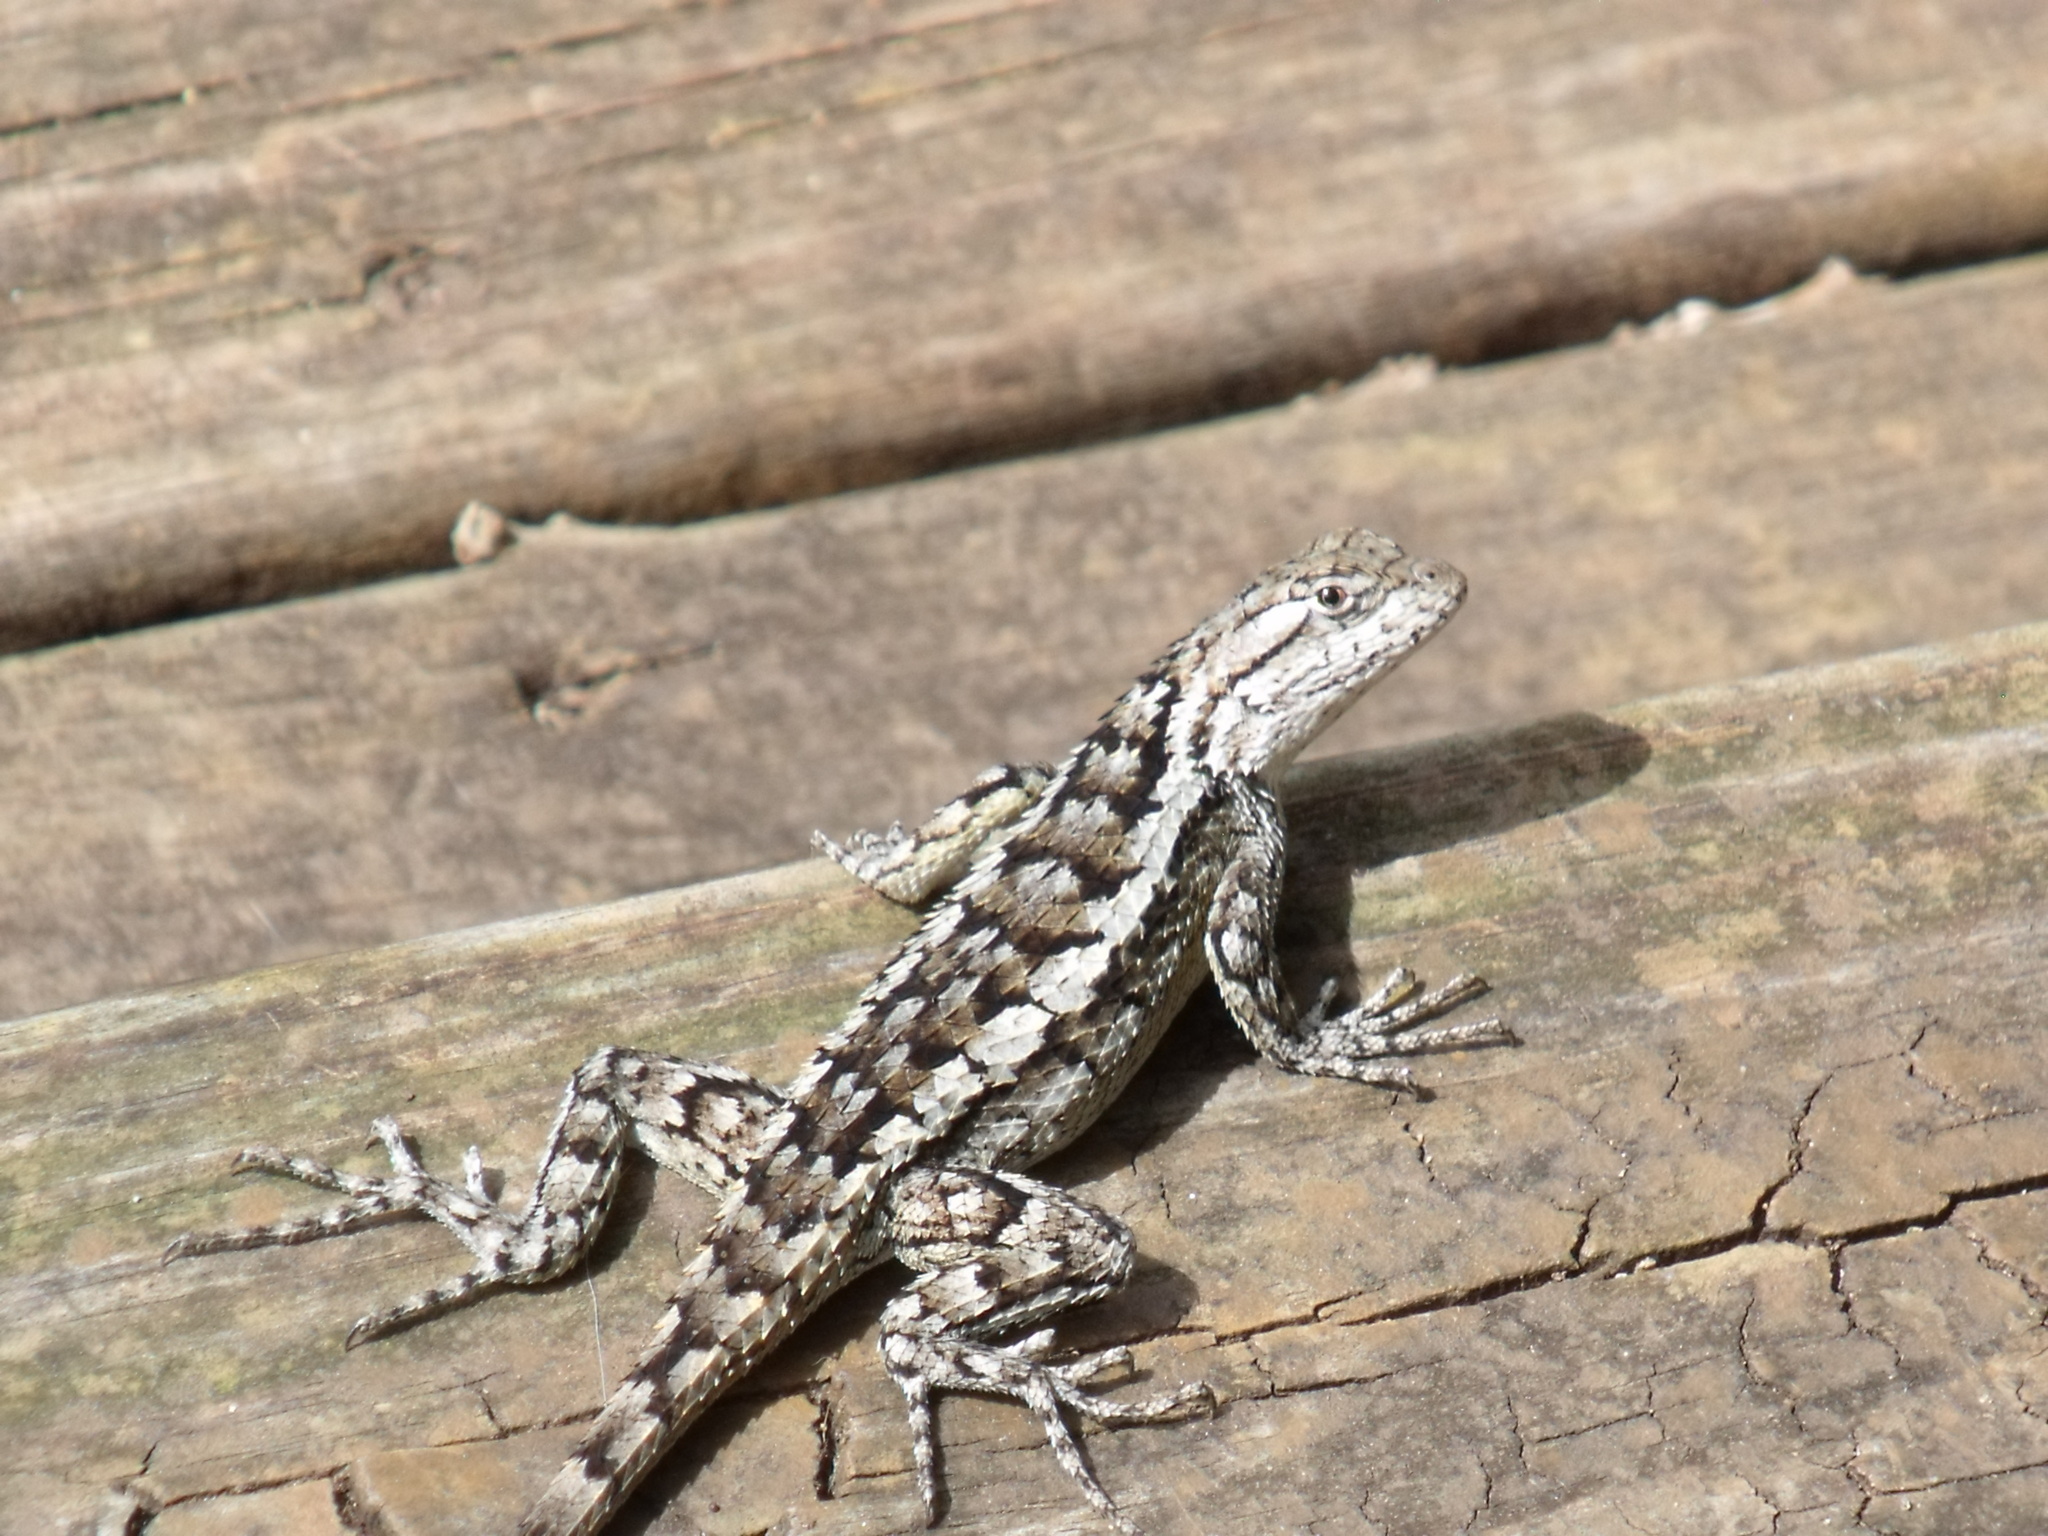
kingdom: Animalia
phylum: Chordata
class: Squamata
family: Phrynosomatidae
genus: Sceloporus
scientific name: Sceloporus olivaceus
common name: Texas spiny lizard
